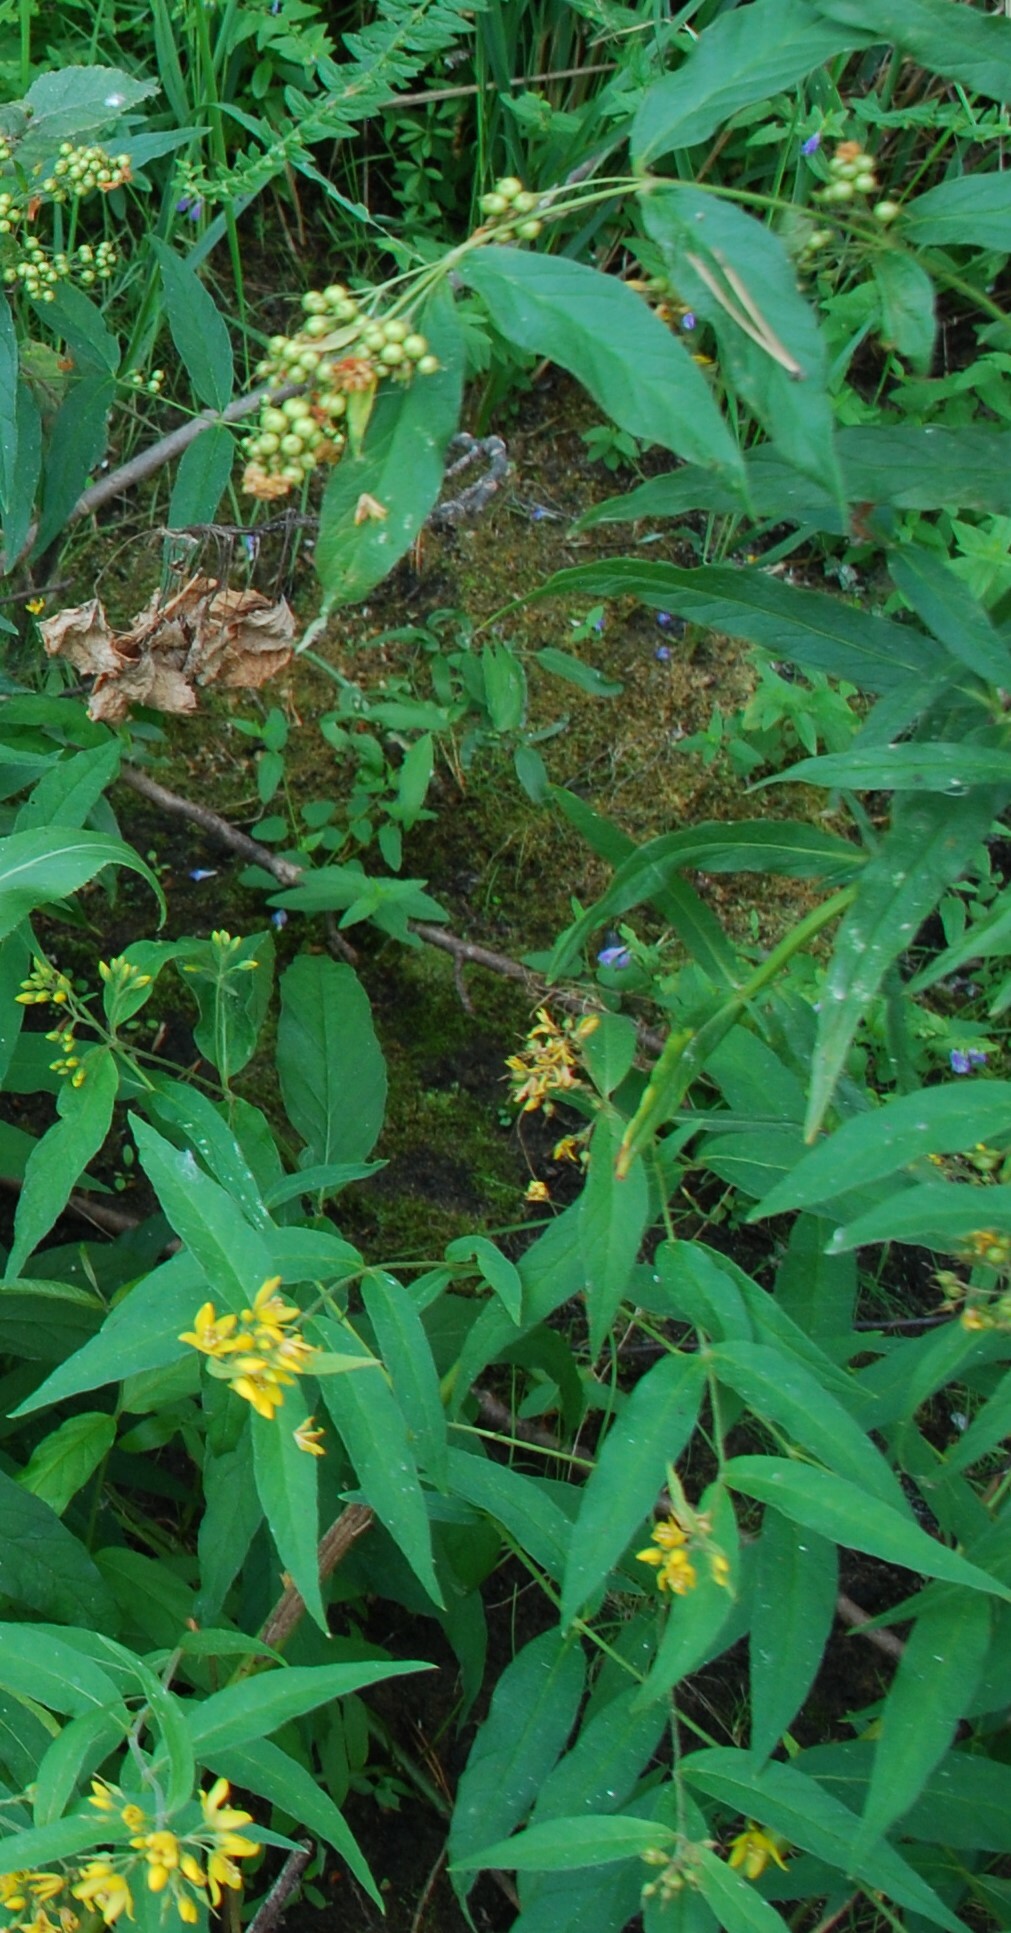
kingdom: Plantae
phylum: Tracheophyta
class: Magnoliopsida
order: Ericales
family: Primulaceae
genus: Lysimachia
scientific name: Lysimachia vulgaris
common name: Yellow loosestrife
